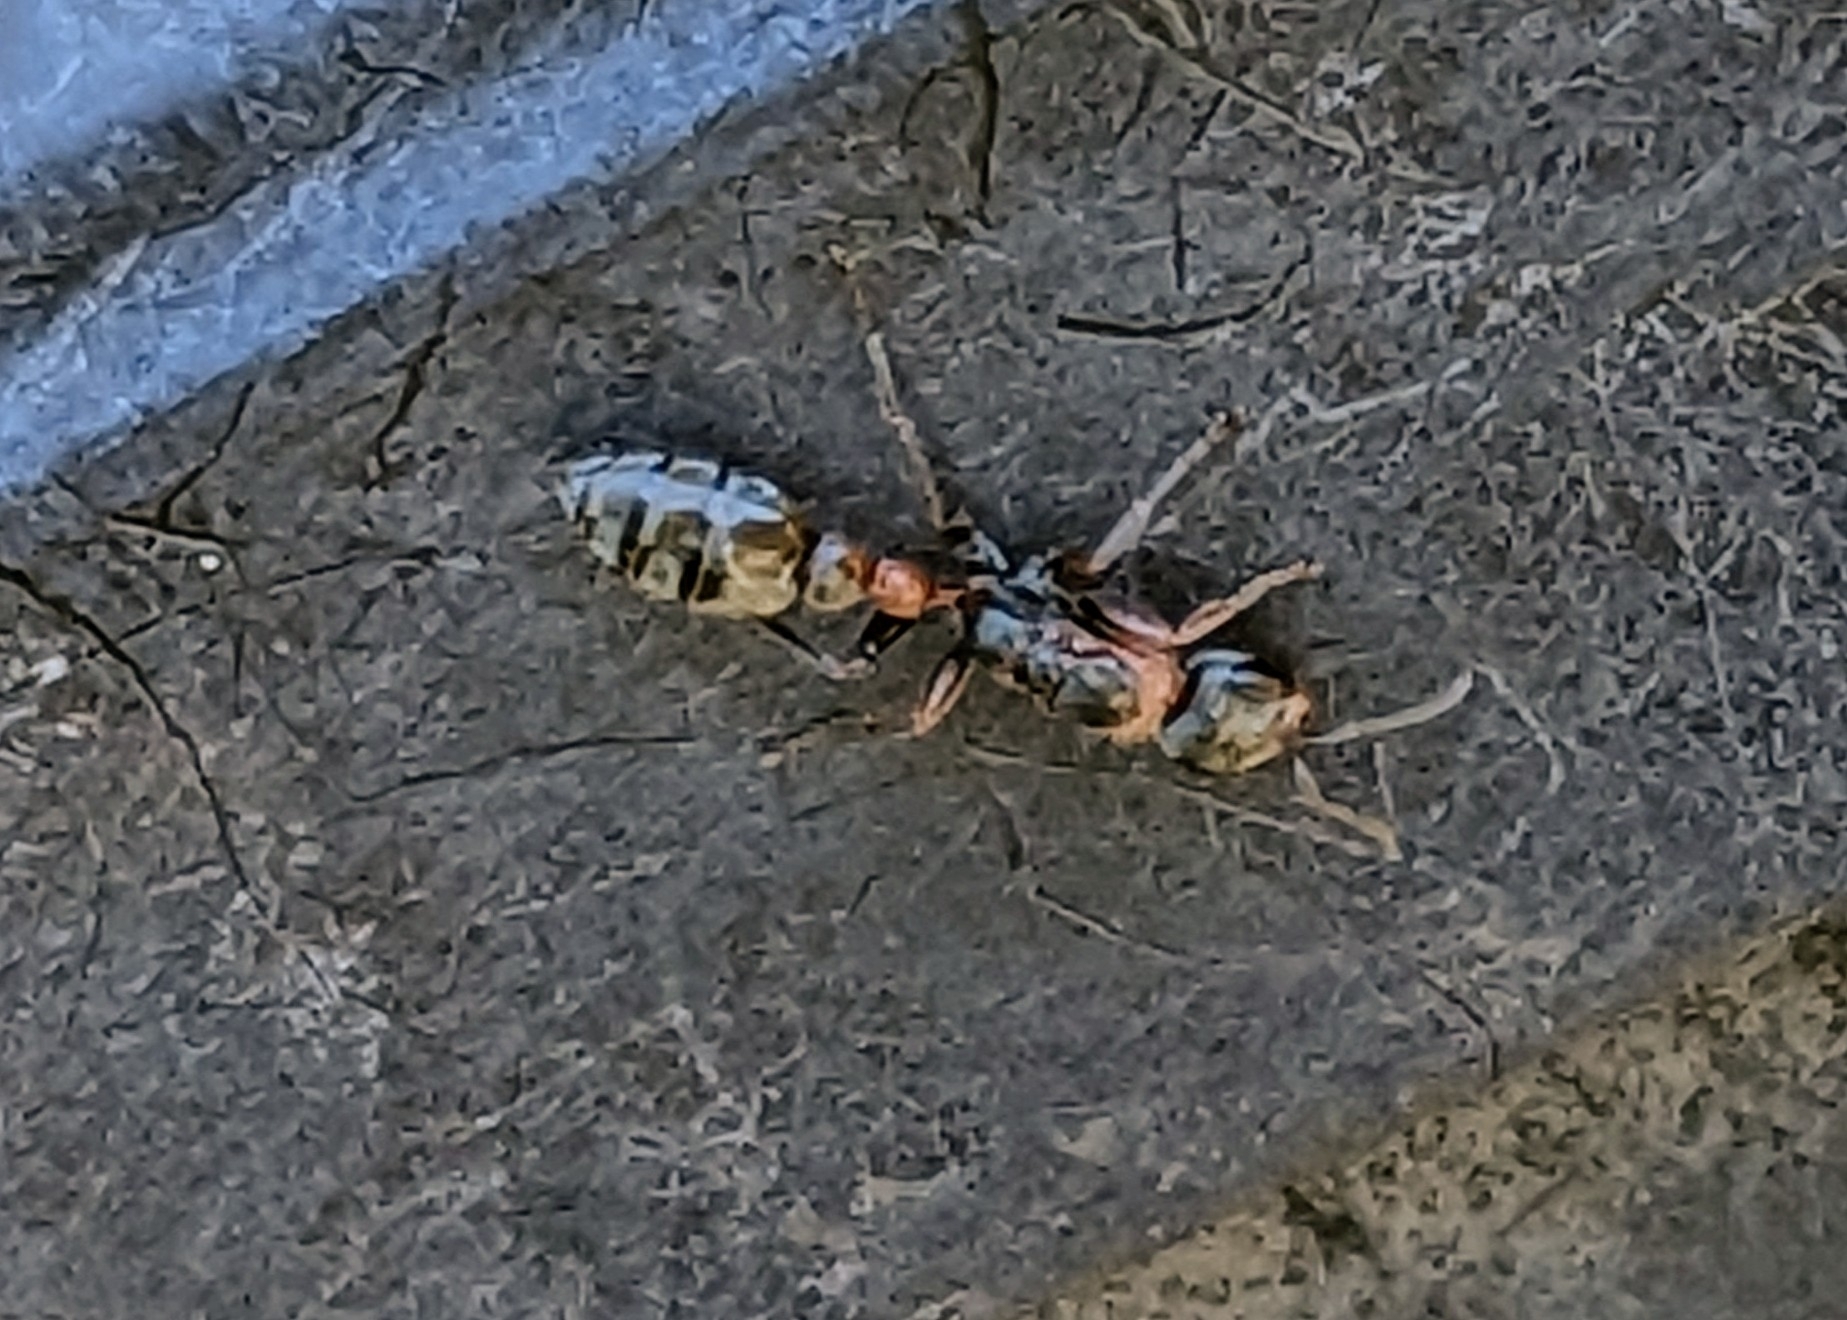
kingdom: Animalia
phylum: Arthropoda
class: Insecta
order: Hymenoptera
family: Formicidae
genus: Pseudomyrmex
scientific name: Pseudomyrmex gracilis
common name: Graceful twig ant
